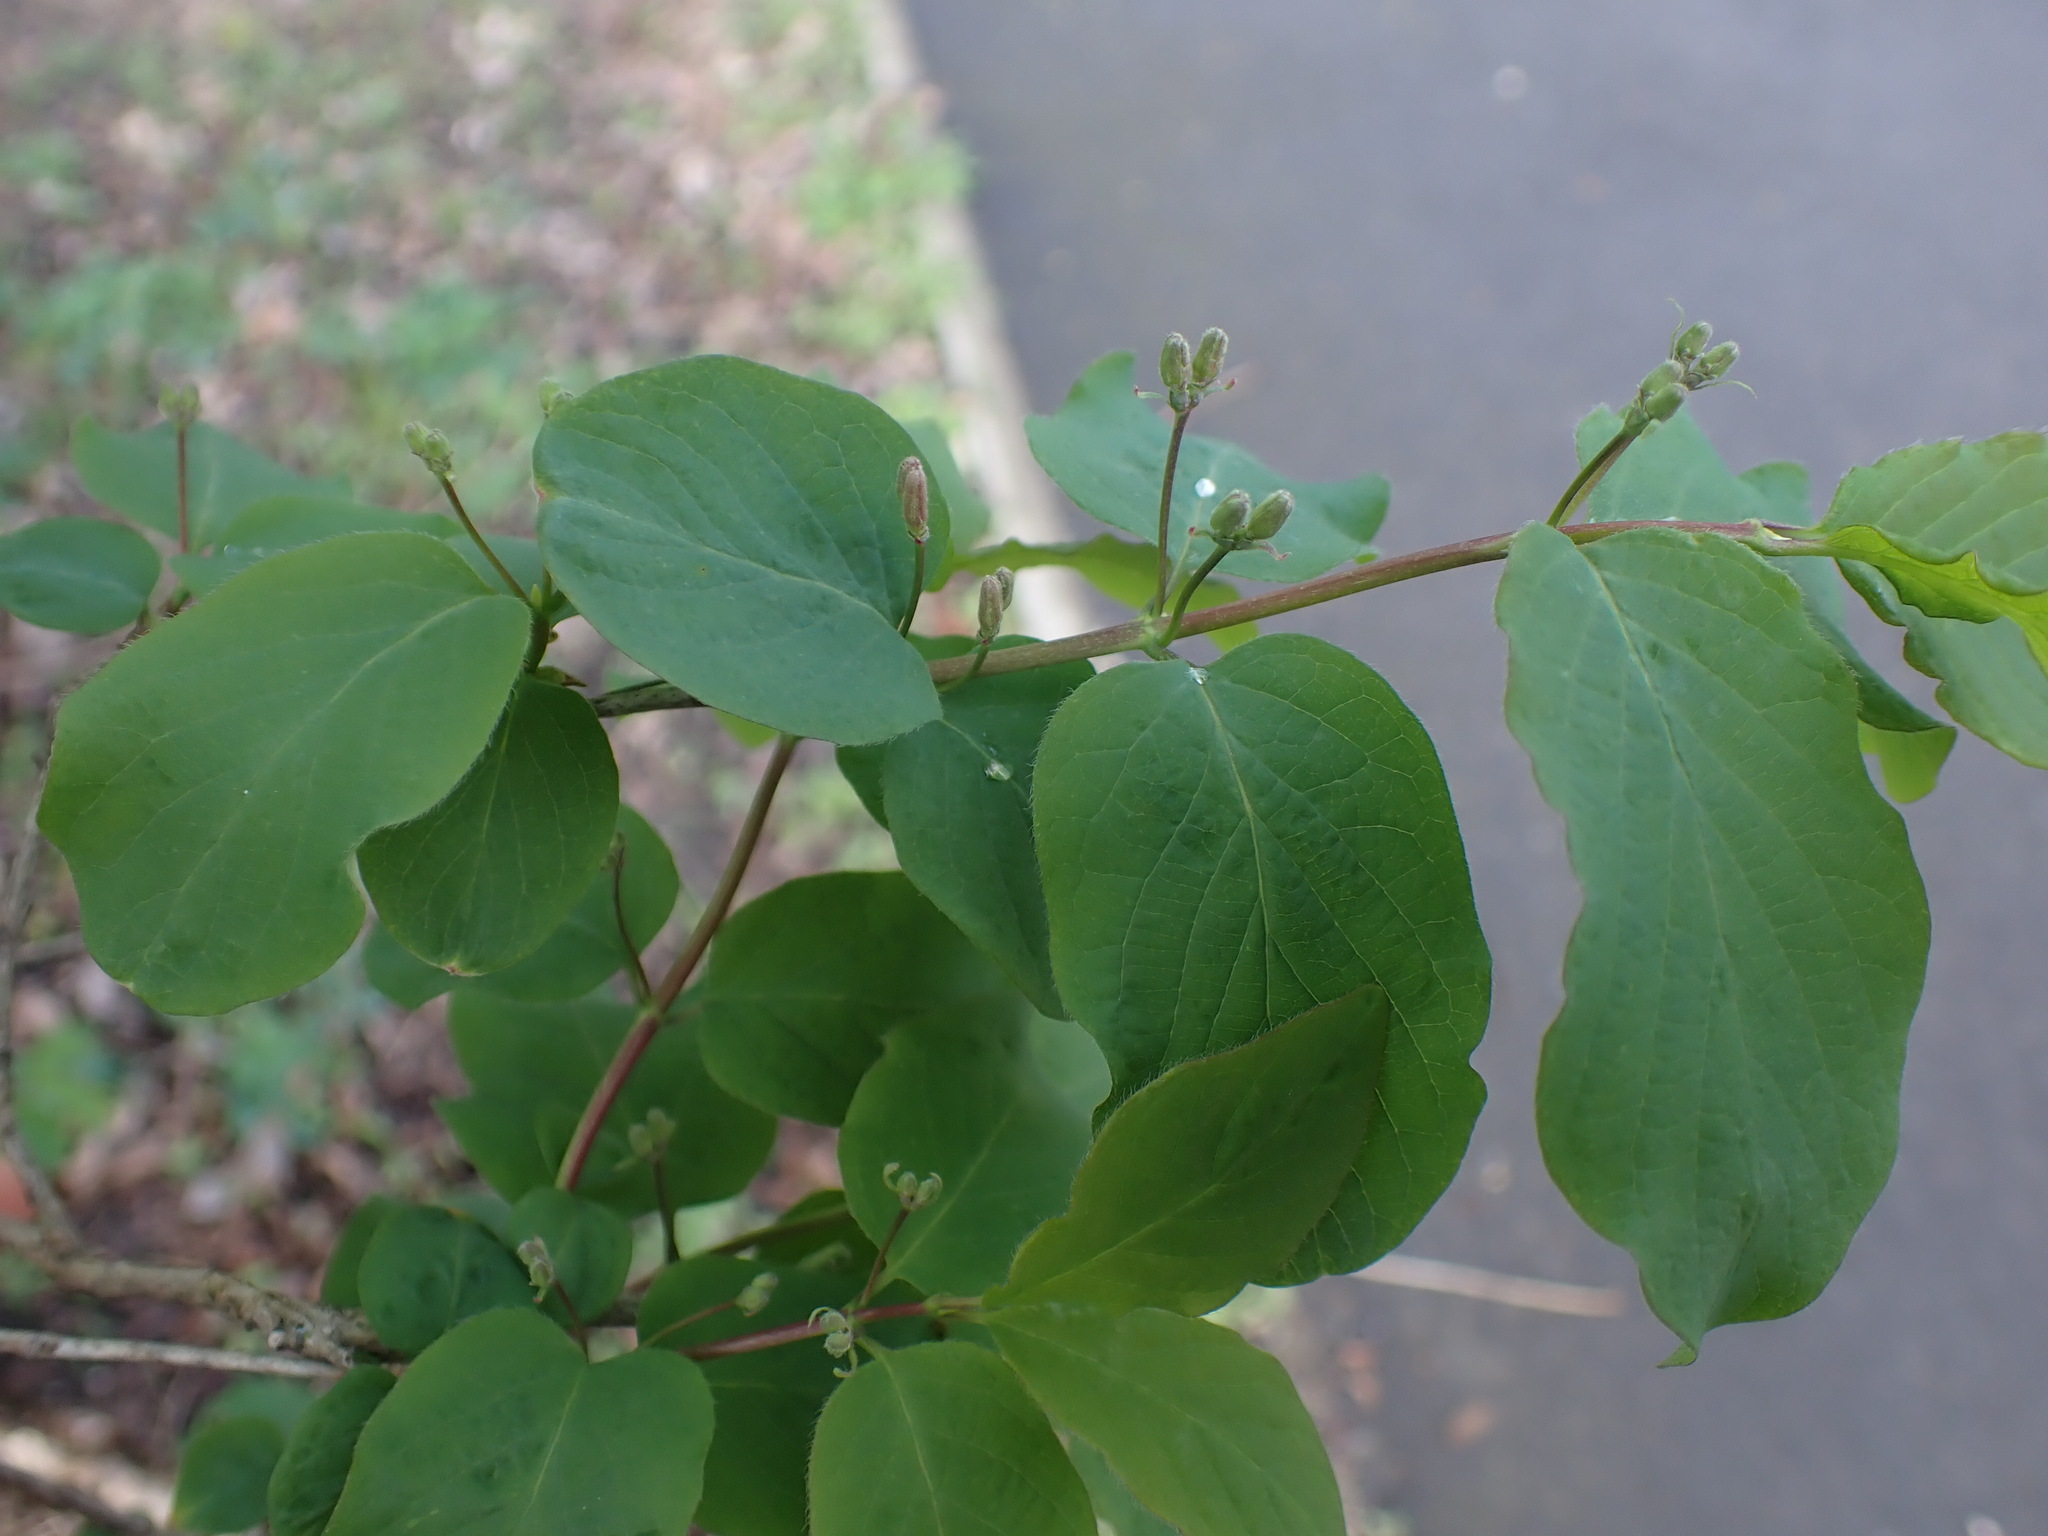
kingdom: Plantae
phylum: Tracheophyta
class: Magnoliopsida
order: Dipsacales
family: Caprifoliaceae
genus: Lonicera
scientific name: Lonicera xylosteum
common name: Fly honeysuckle
